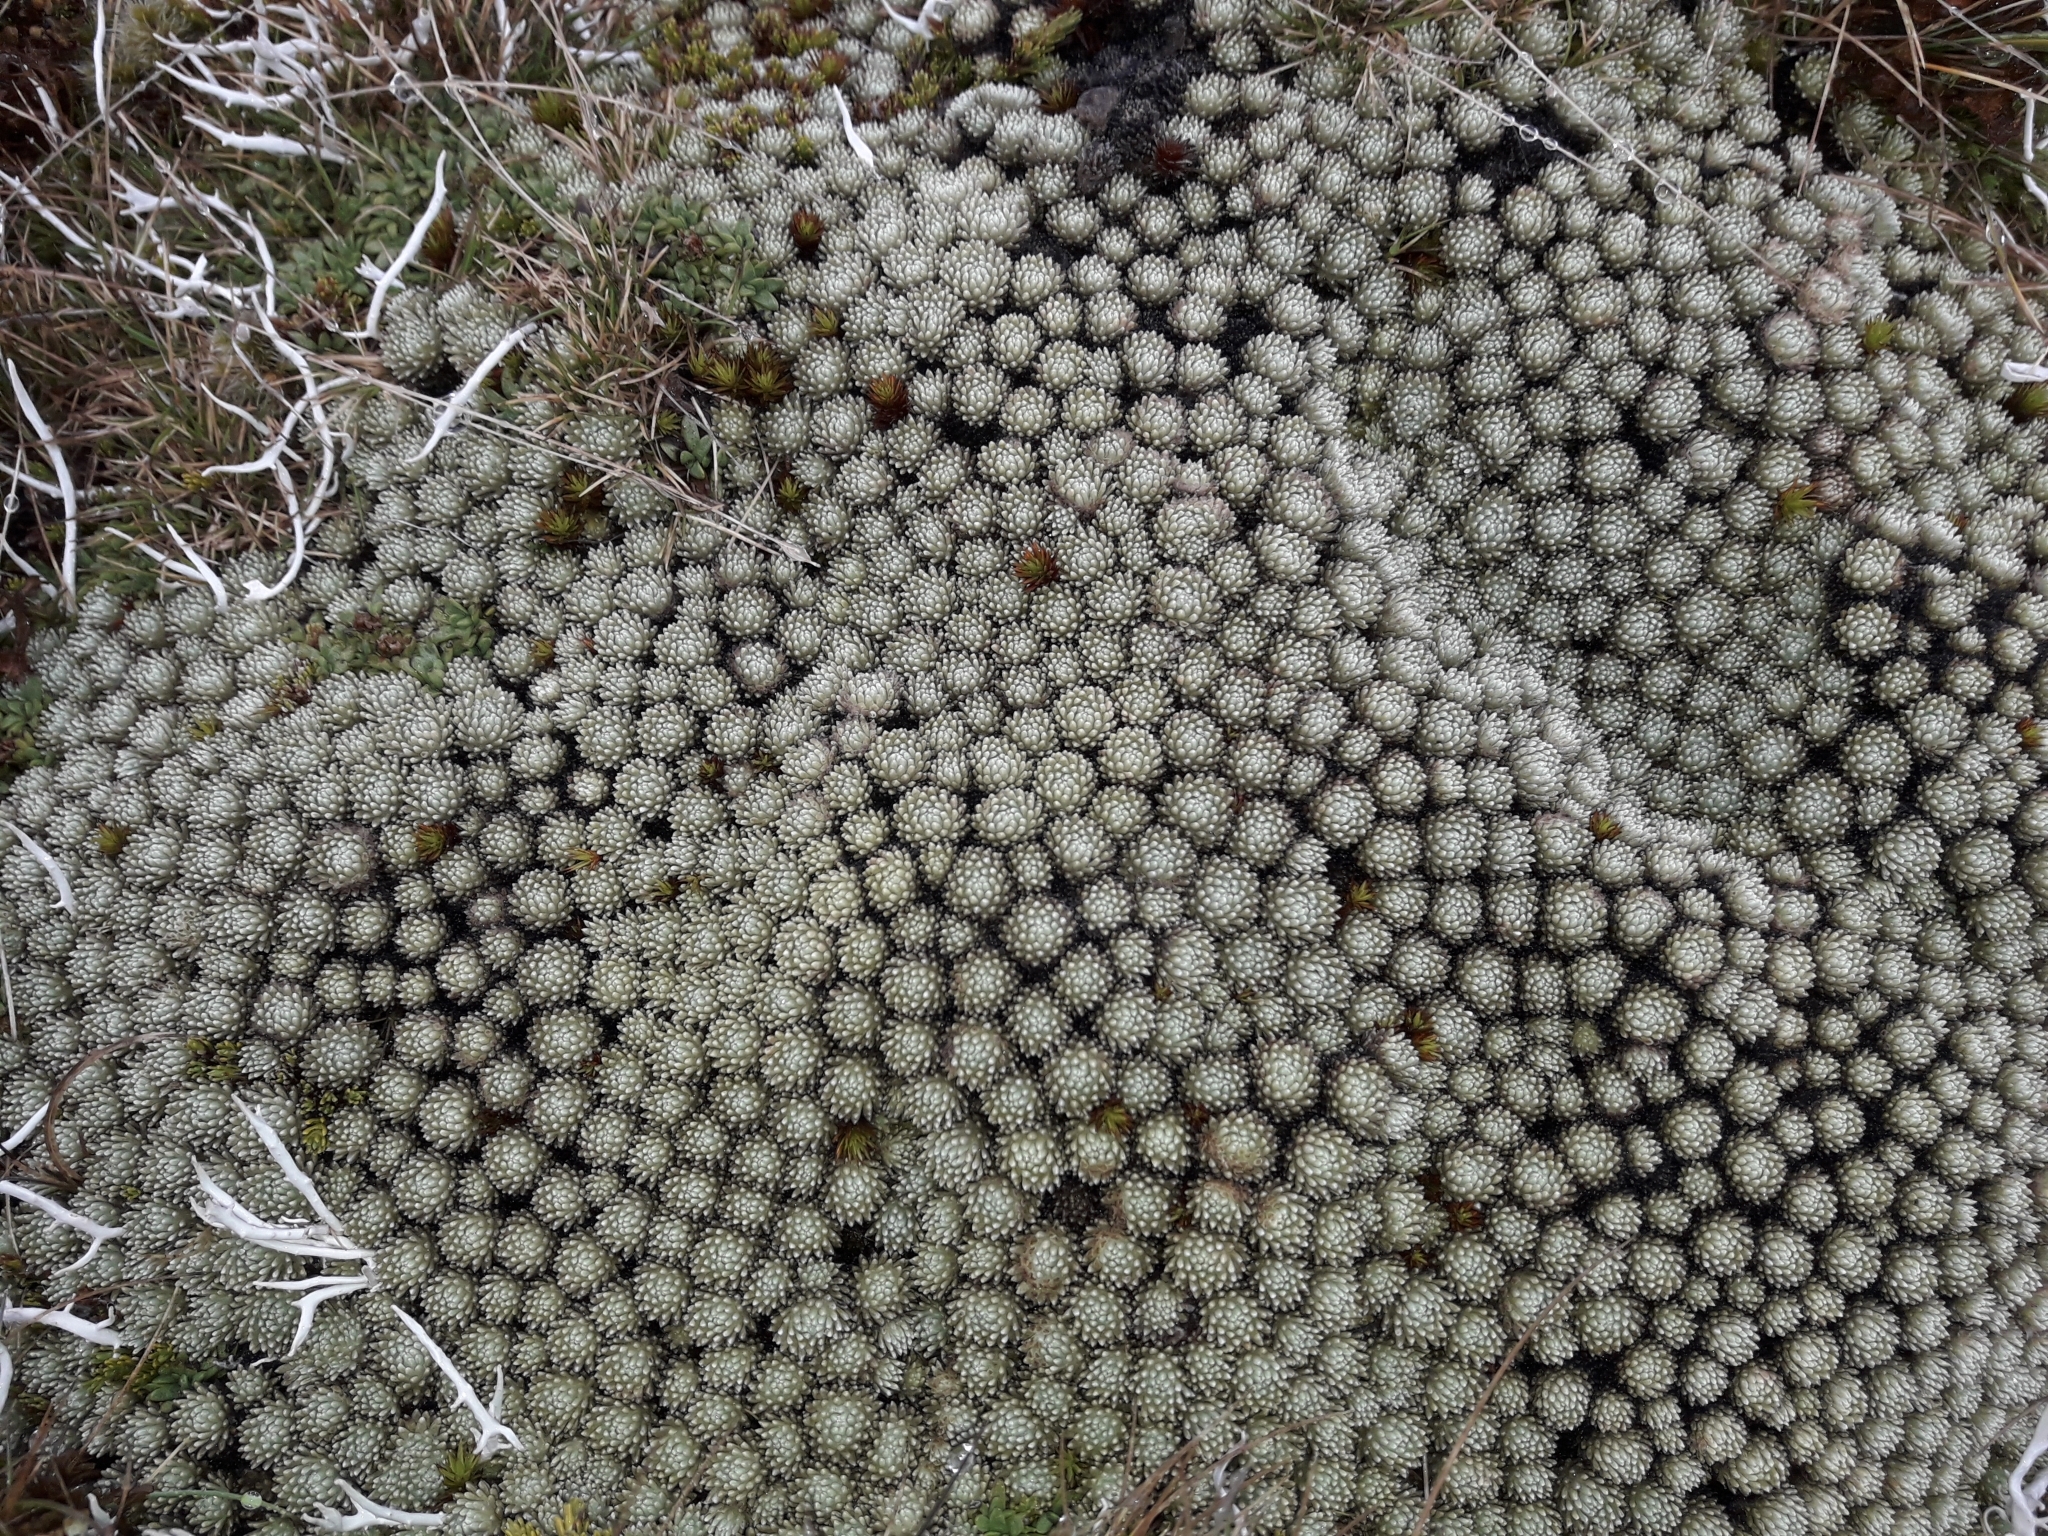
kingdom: Plantae
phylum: Tracheophyta
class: Magnoliopsida
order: Asterales
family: Asteraceae
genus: Celmisia
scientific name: Celmisia argentea
